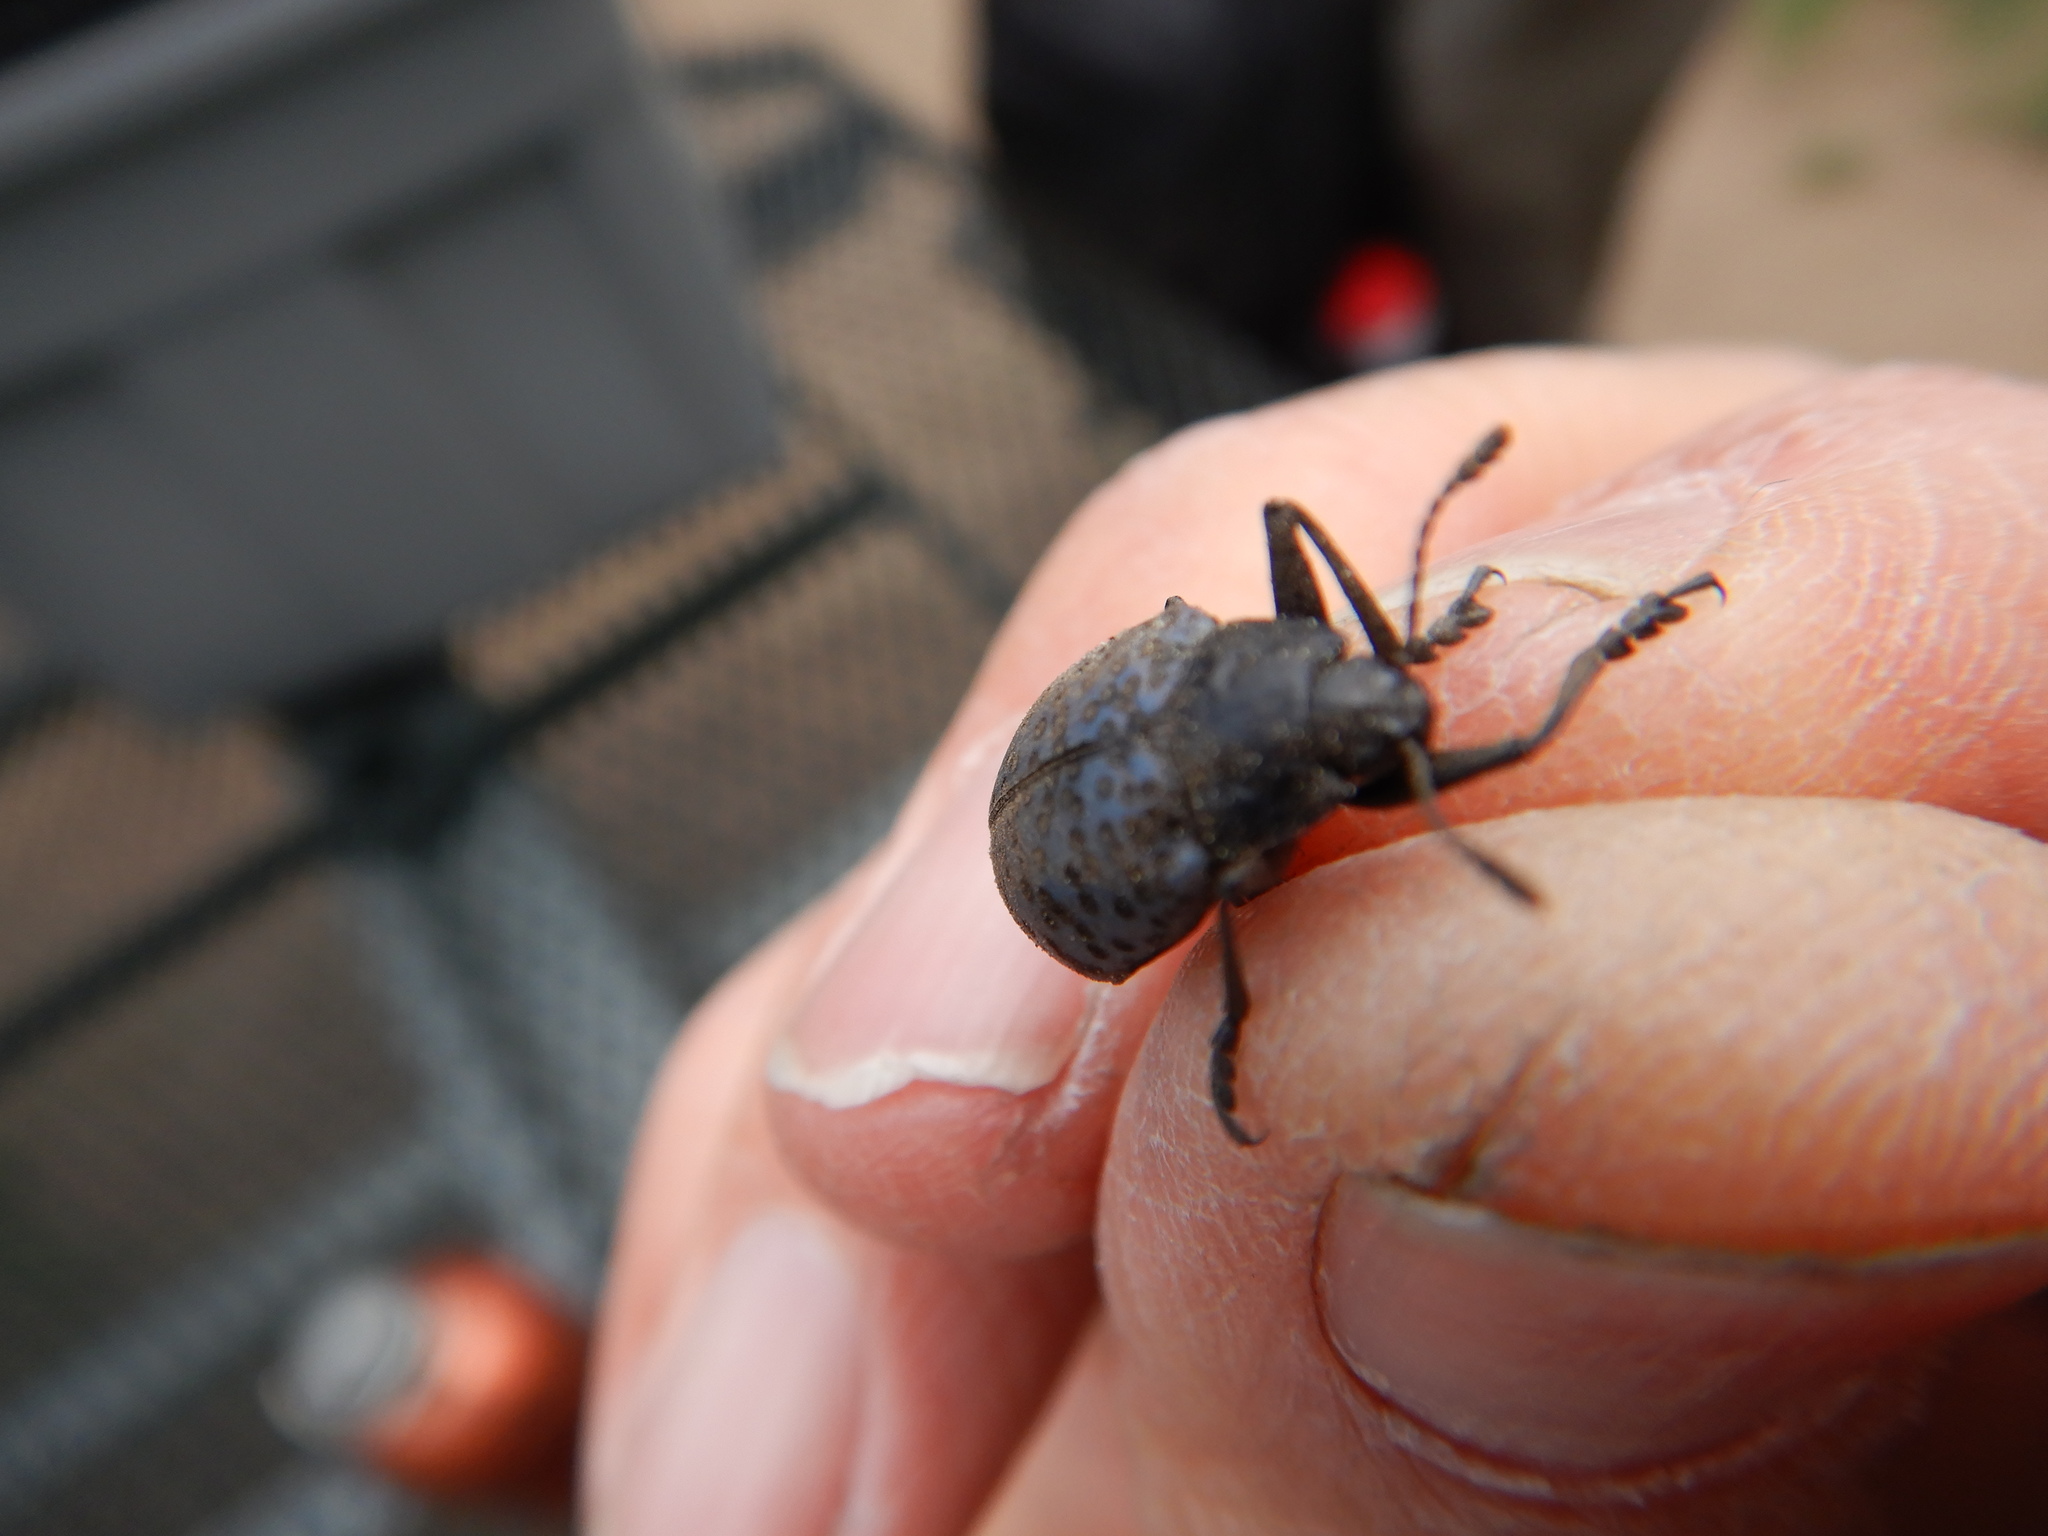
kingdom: Animalia
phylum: Arthropoda
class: Insecta
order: Coleoptera
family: Erotylidae
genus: Gibbifer
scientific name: Gibbifer californicus
